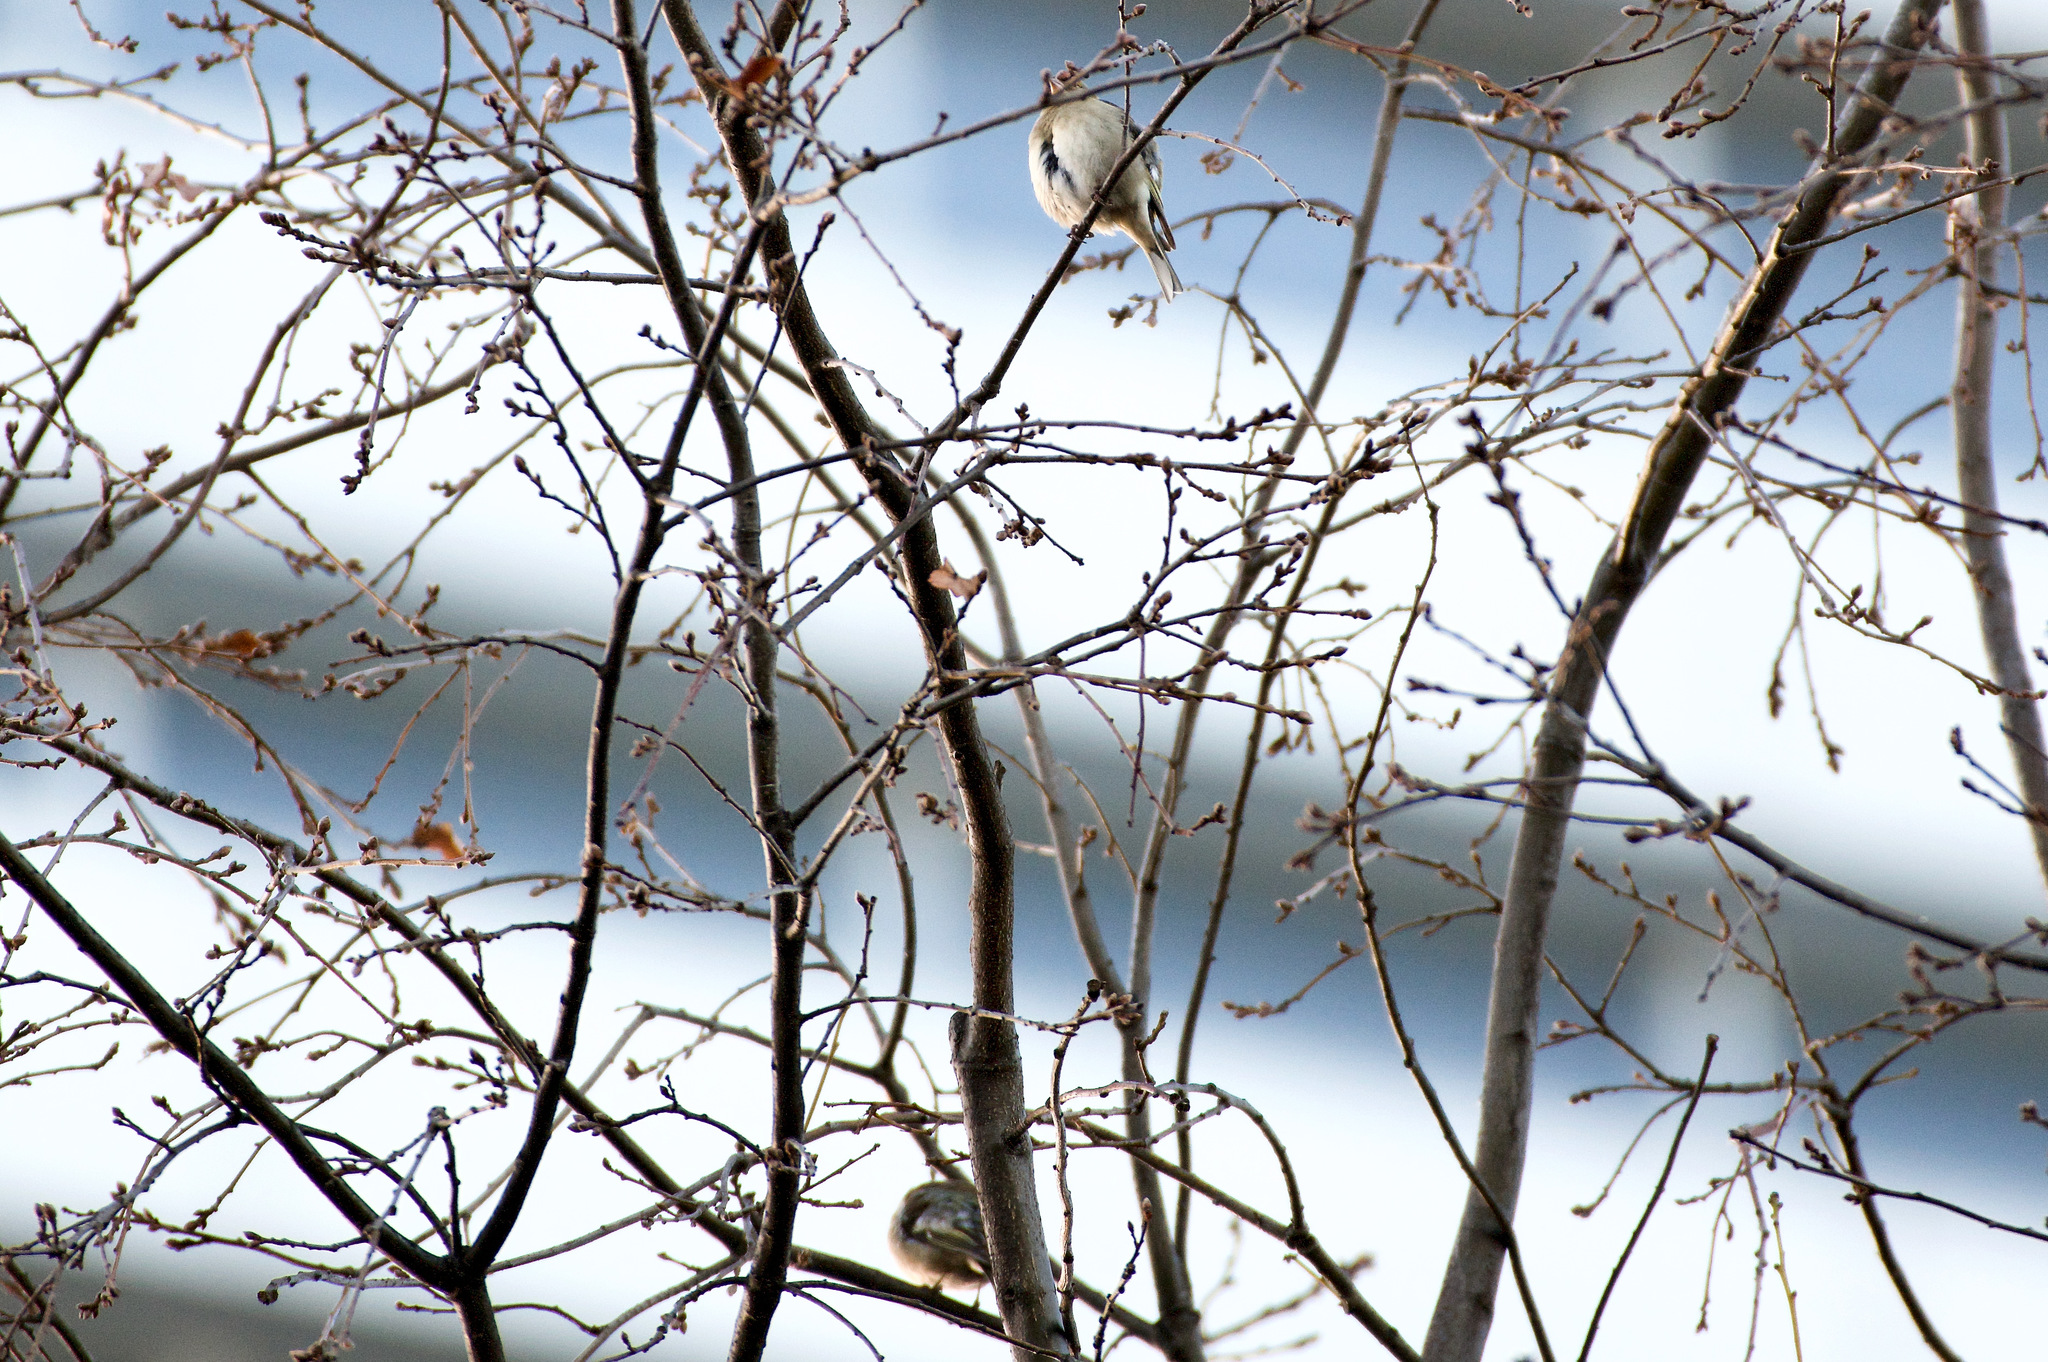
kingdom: Animalia
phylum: Chordata
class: Aves
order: Passeriformes
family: Fringillidae
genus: Fringilla
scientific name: Fringilla coelebs
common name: Common chaffinch
